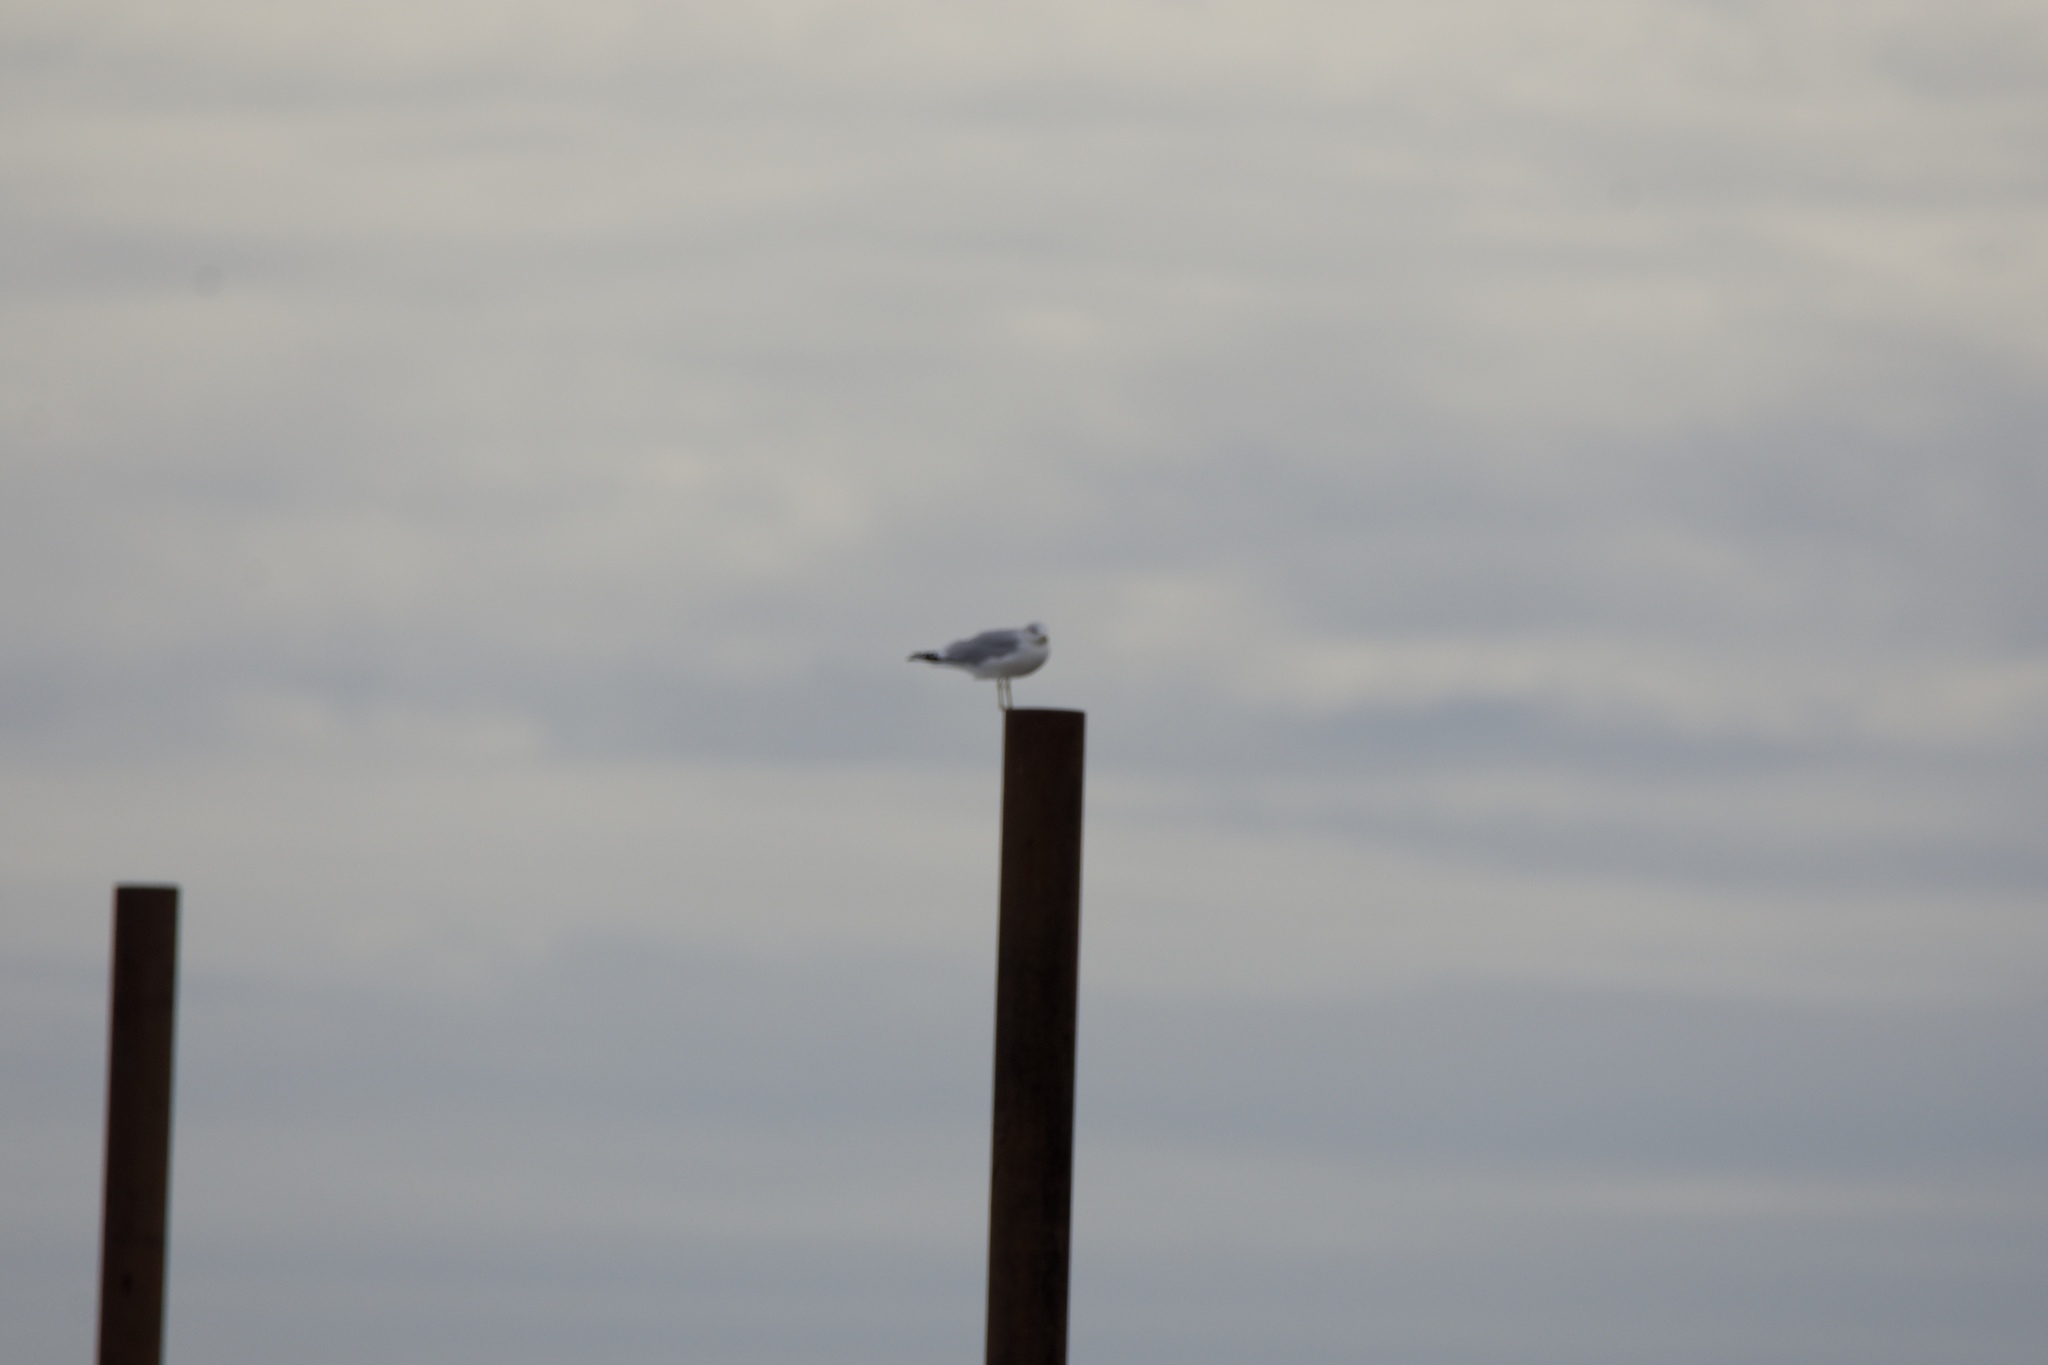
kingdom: Animalia
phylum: Chordata
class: Aves
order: Charadriiformes
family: Laridae
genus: Larus
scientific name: Larus delawarensis
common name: Ring-billed gull
